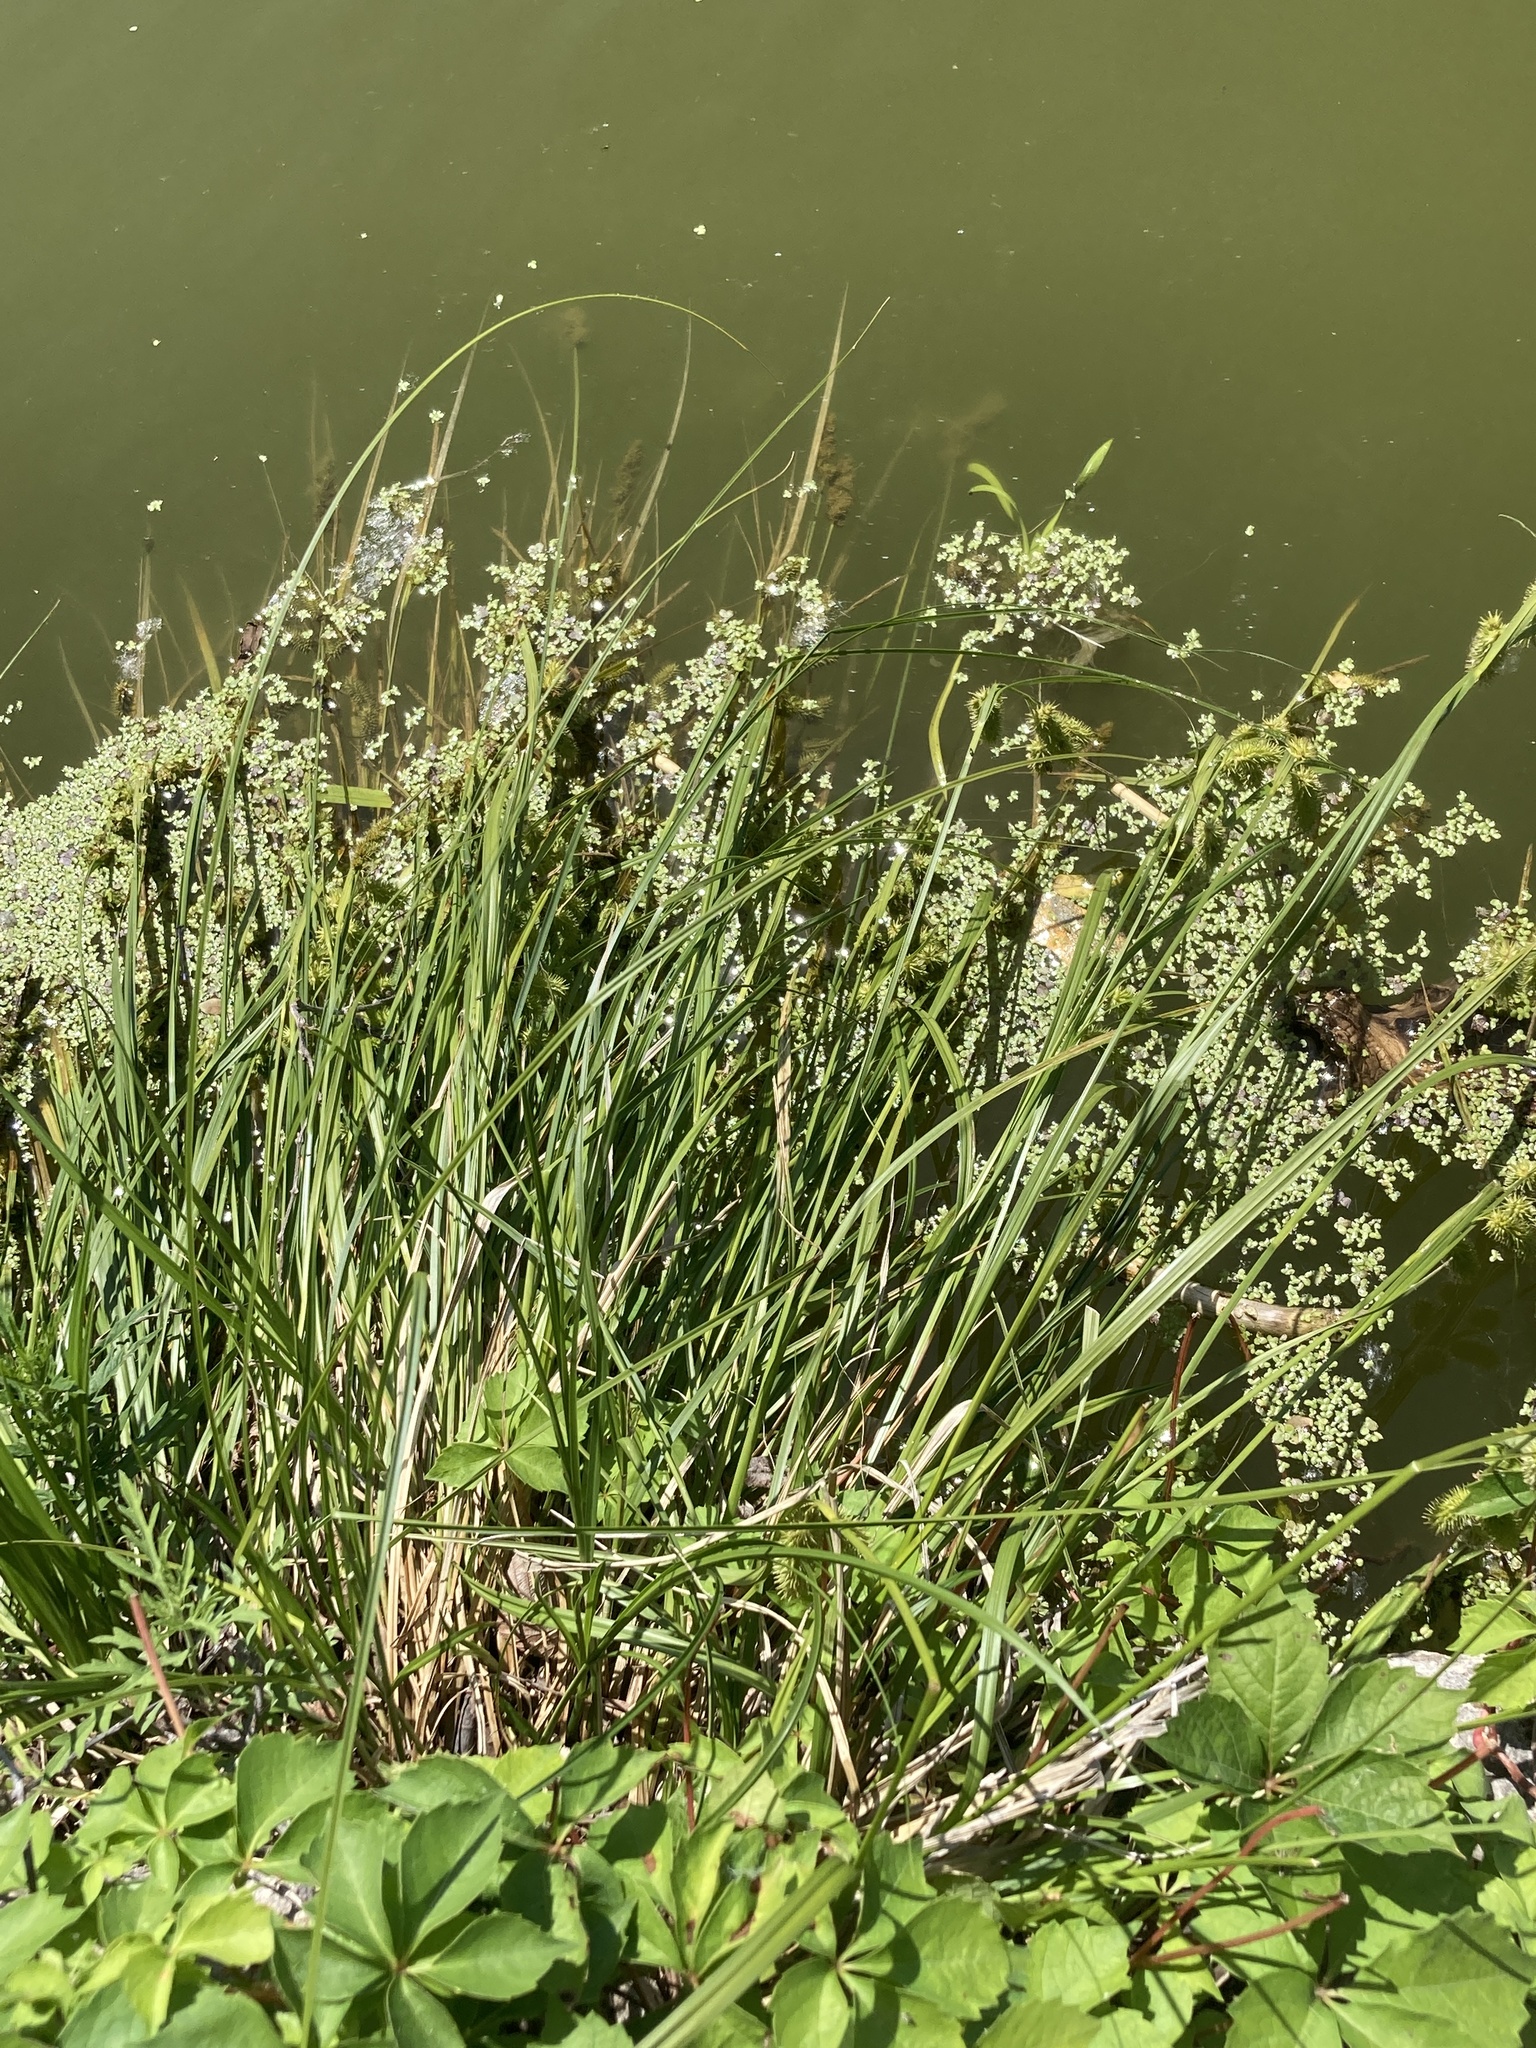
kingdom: Plantae
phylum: Tracheophyta
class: Liliopsida
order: Poales
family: Cyperaceae
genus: Carex
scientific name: Carex hystericina
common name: Bottlebrush sedge
